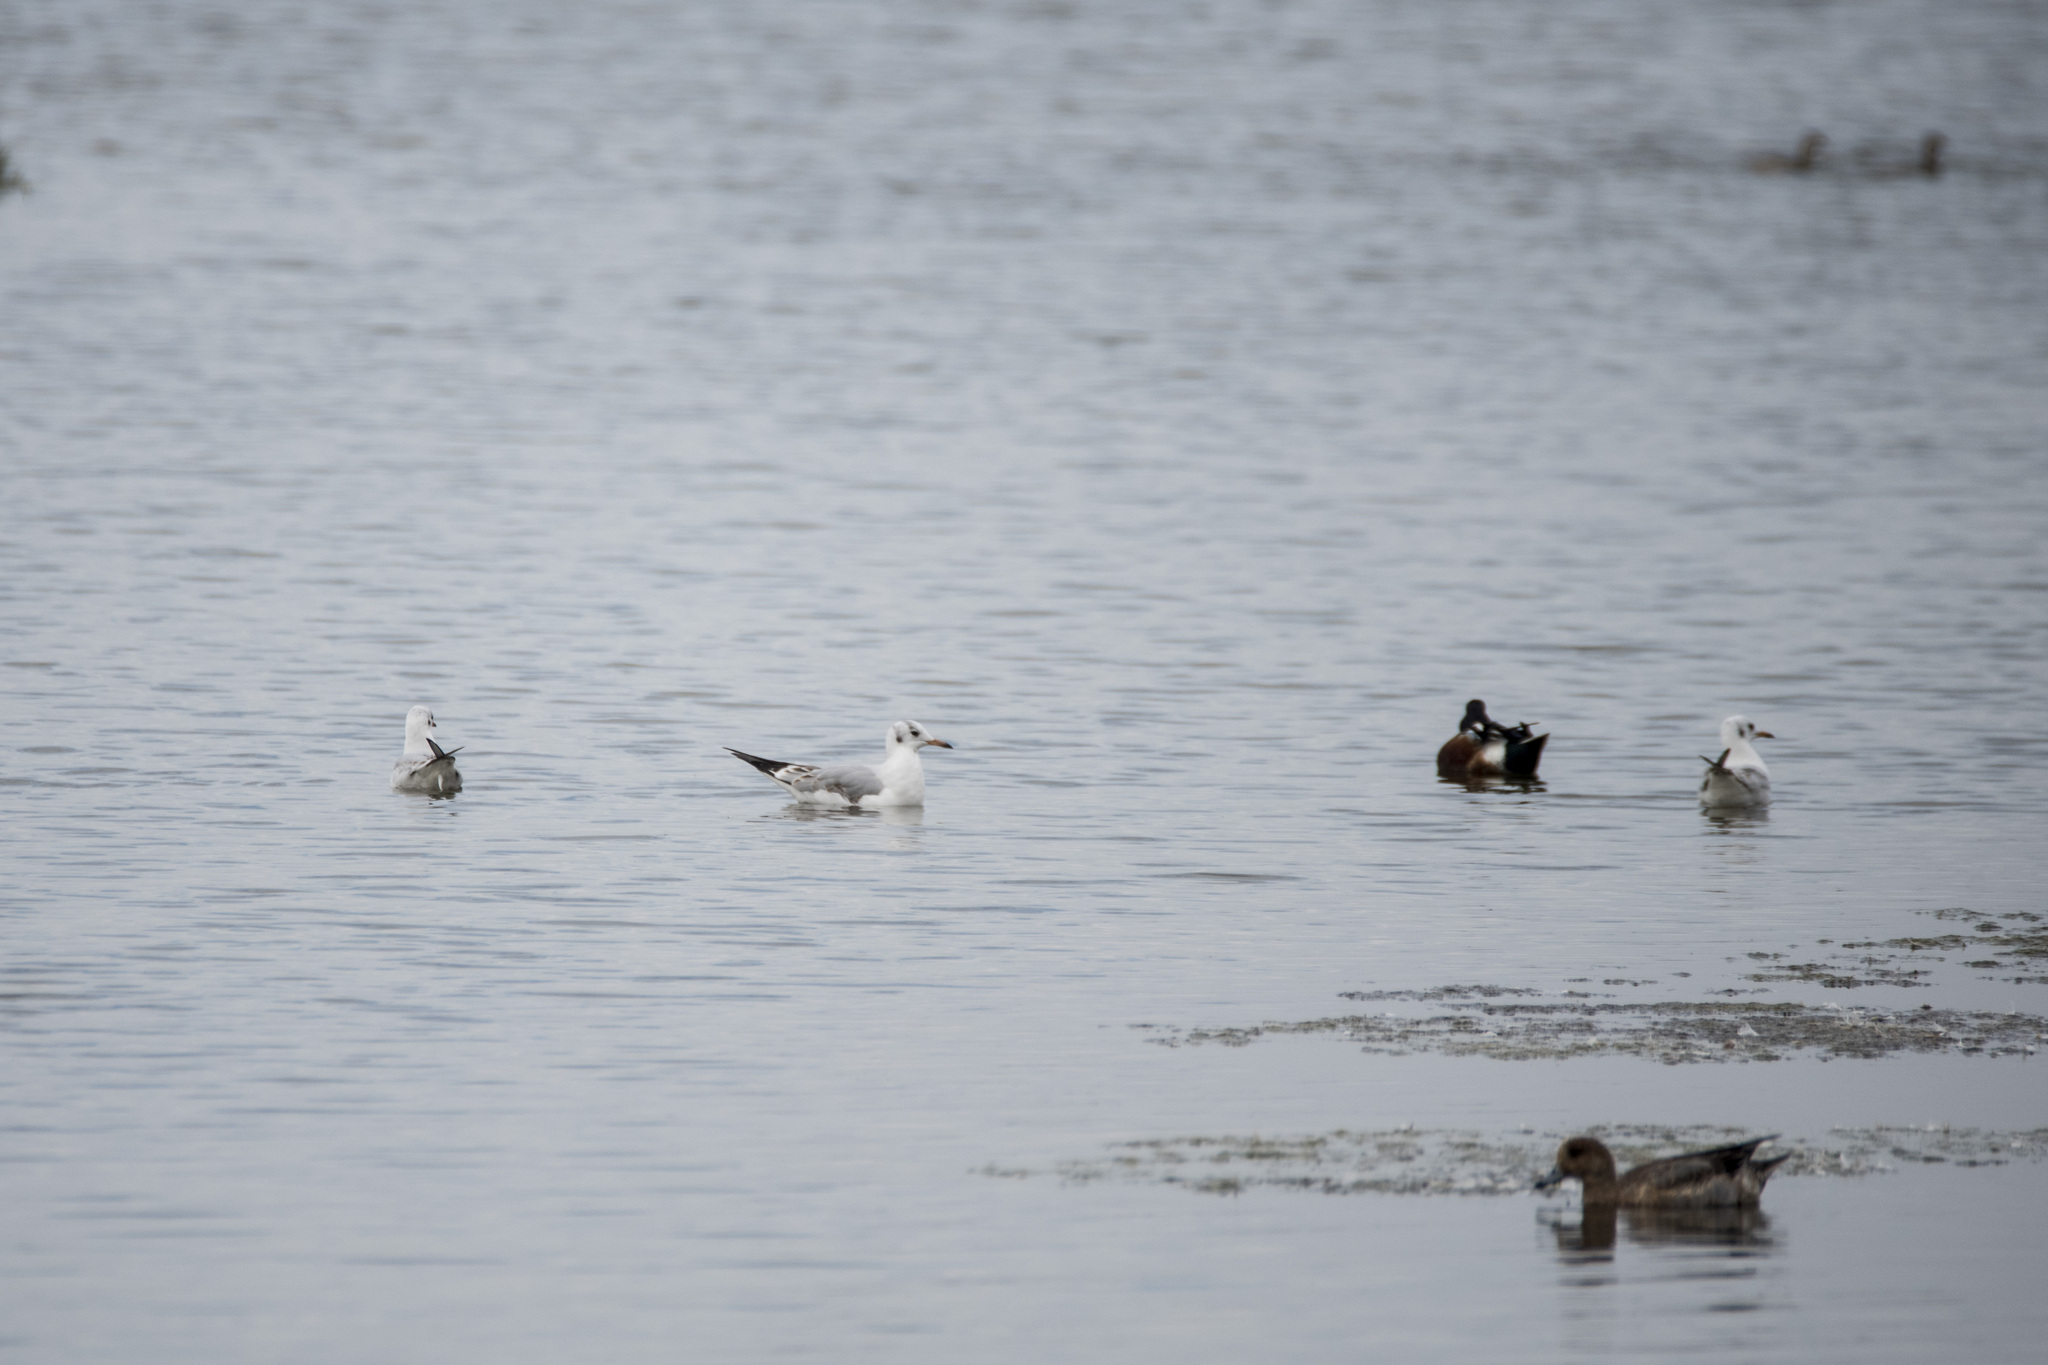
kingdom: Animalia
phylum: Chordata
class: Aves
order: Charadriiformes
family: Laridae
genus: Chroicocephalus
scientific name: Chroicocephalus ridibundus
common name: Black-headed gull
